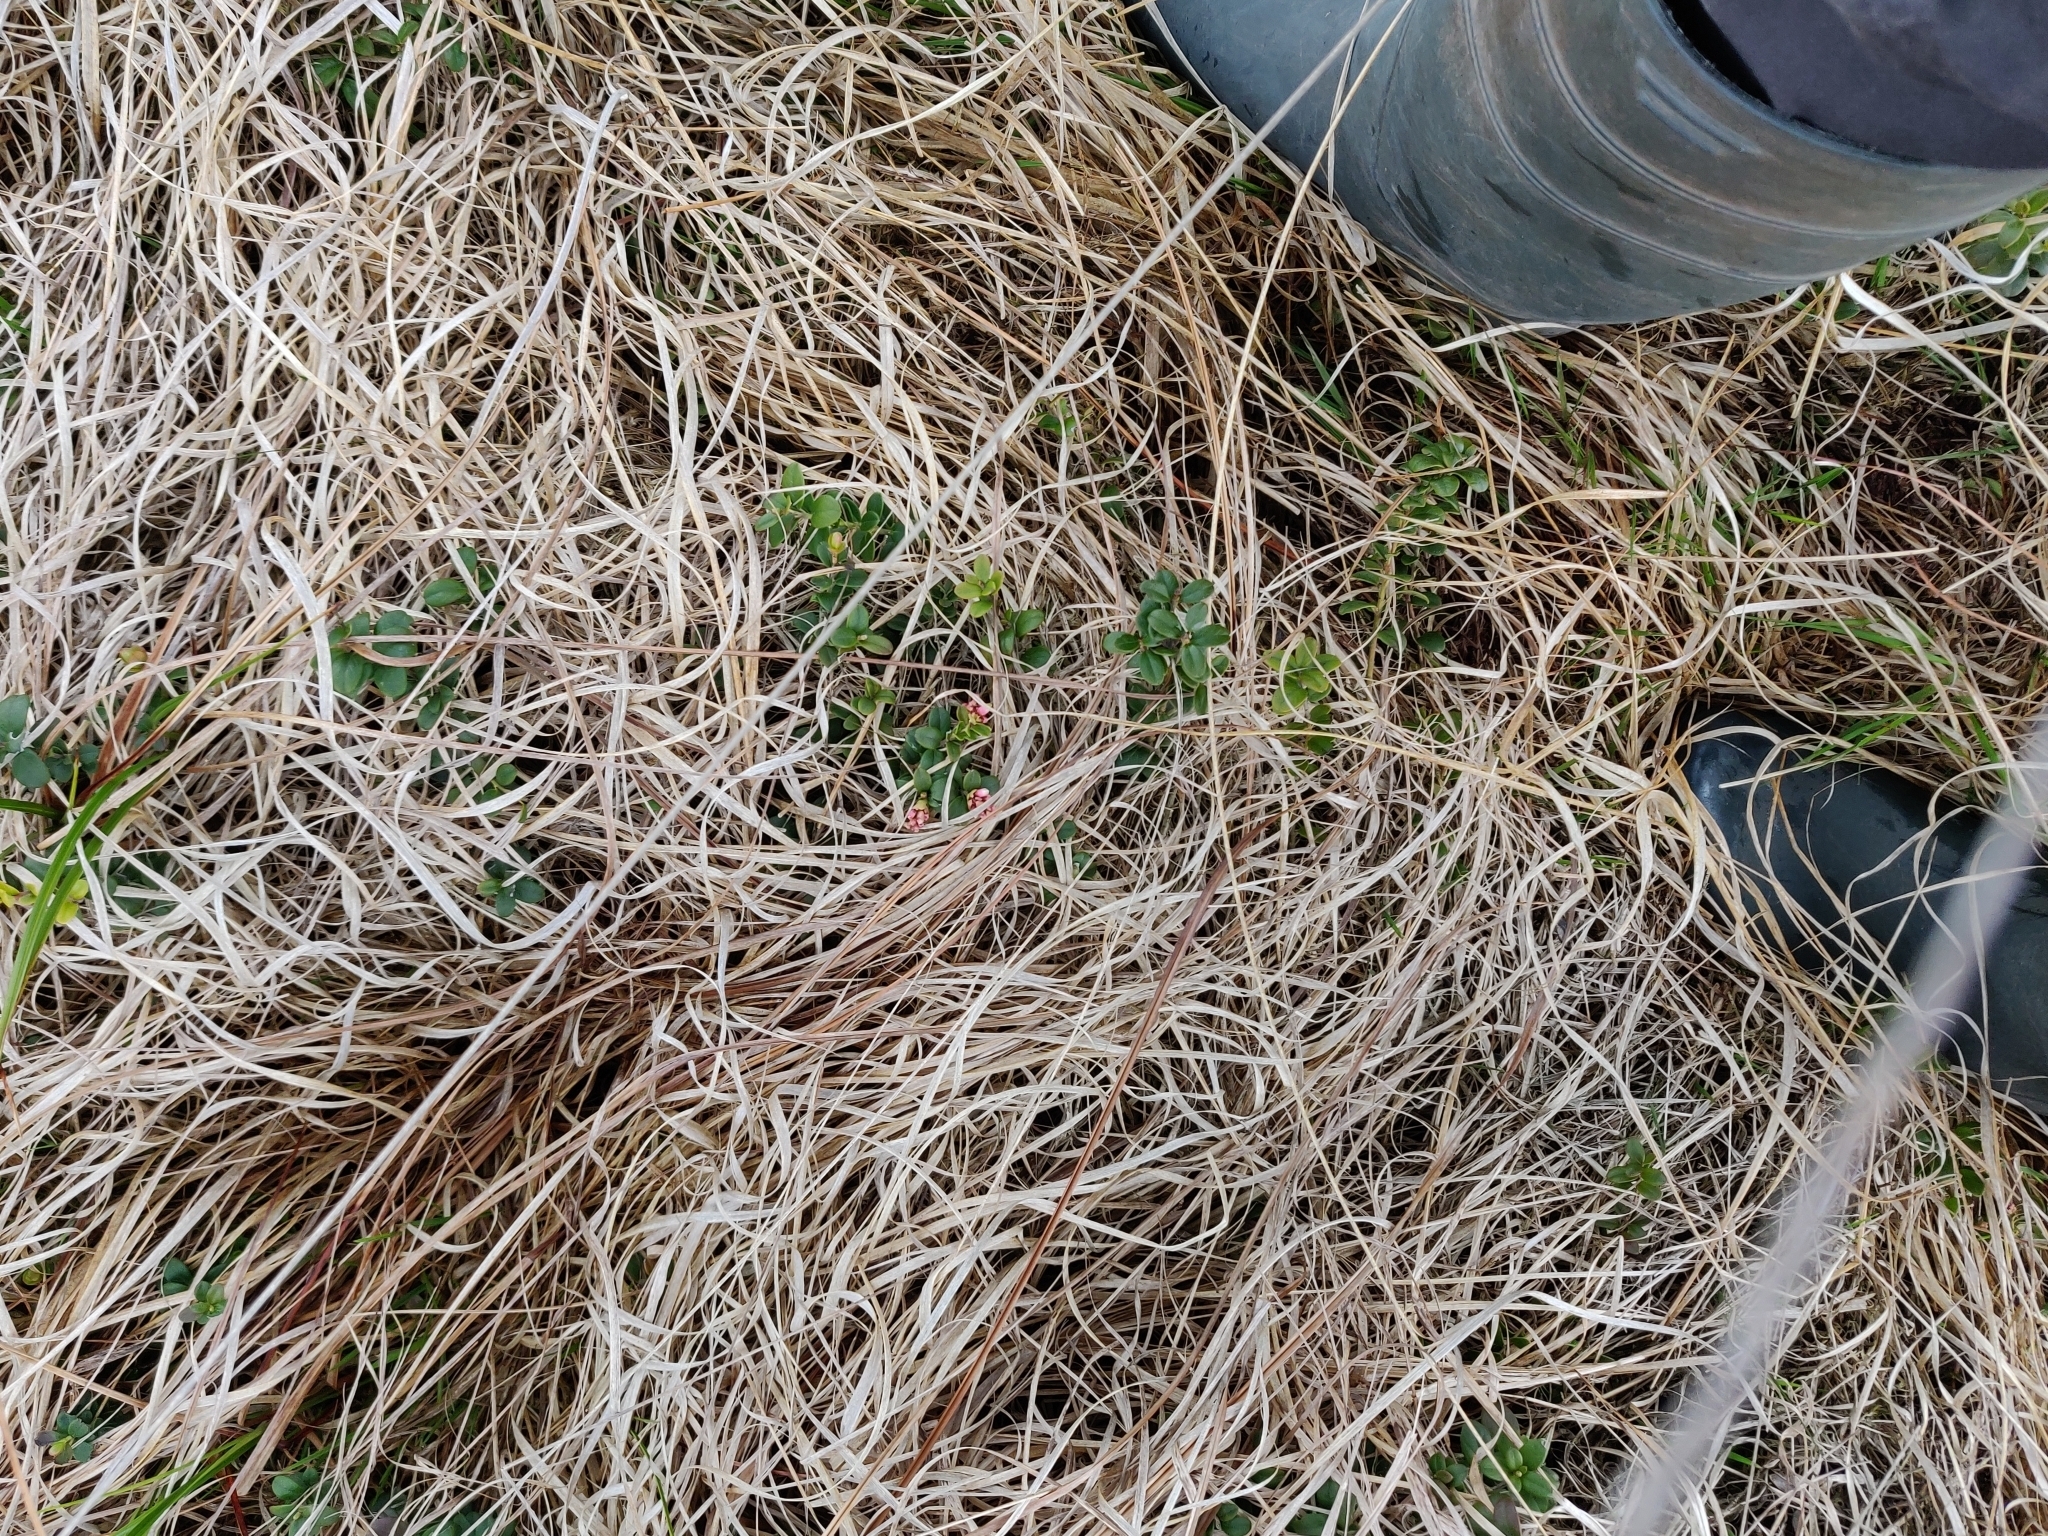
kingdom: Plantae
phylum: Tracheophyta
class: Magnoliopsida
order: Ericales
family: Ericaceae
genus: Vaccinium
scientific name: Vaccinium vitis-idaea
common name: Cowberry
